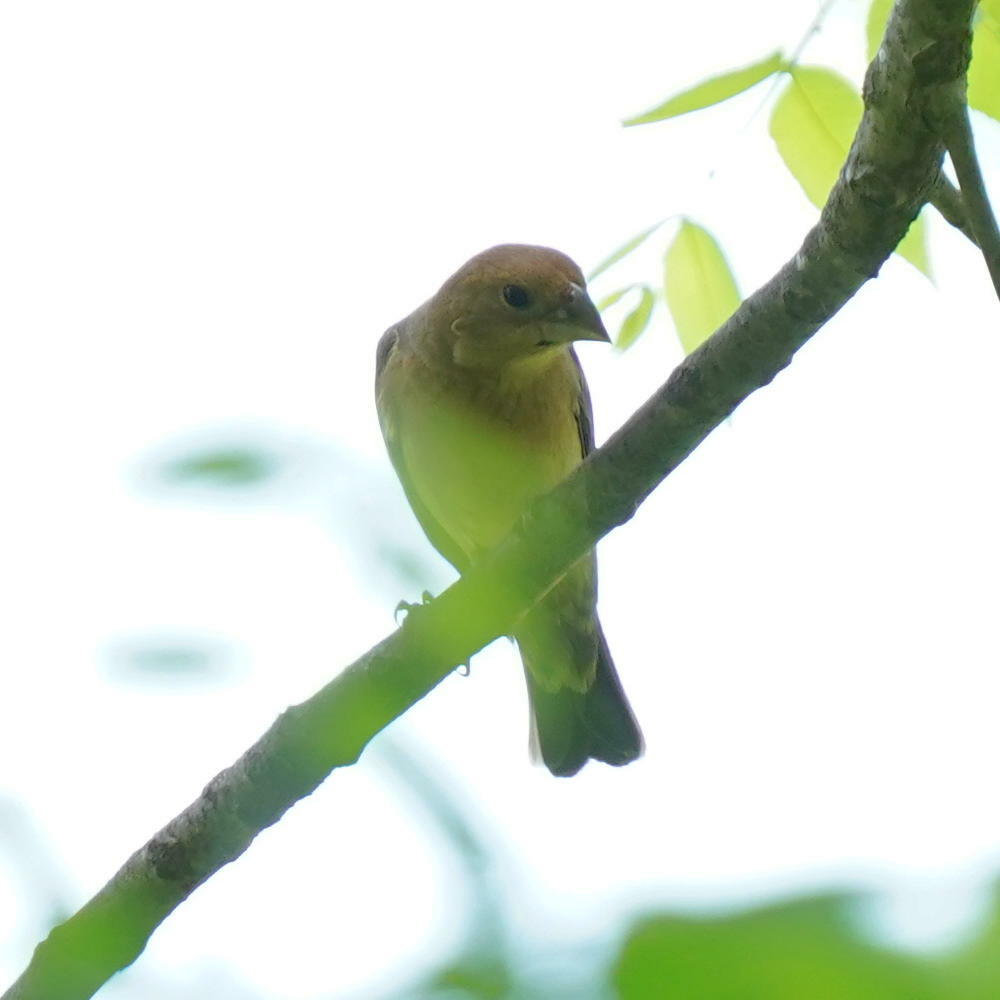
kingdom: Animalia
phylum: Chordata
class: Aves
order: Passeriformes
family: Cardinalidae
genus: Passerina
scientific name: Passerina caerulea
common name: Blue grosbeak
